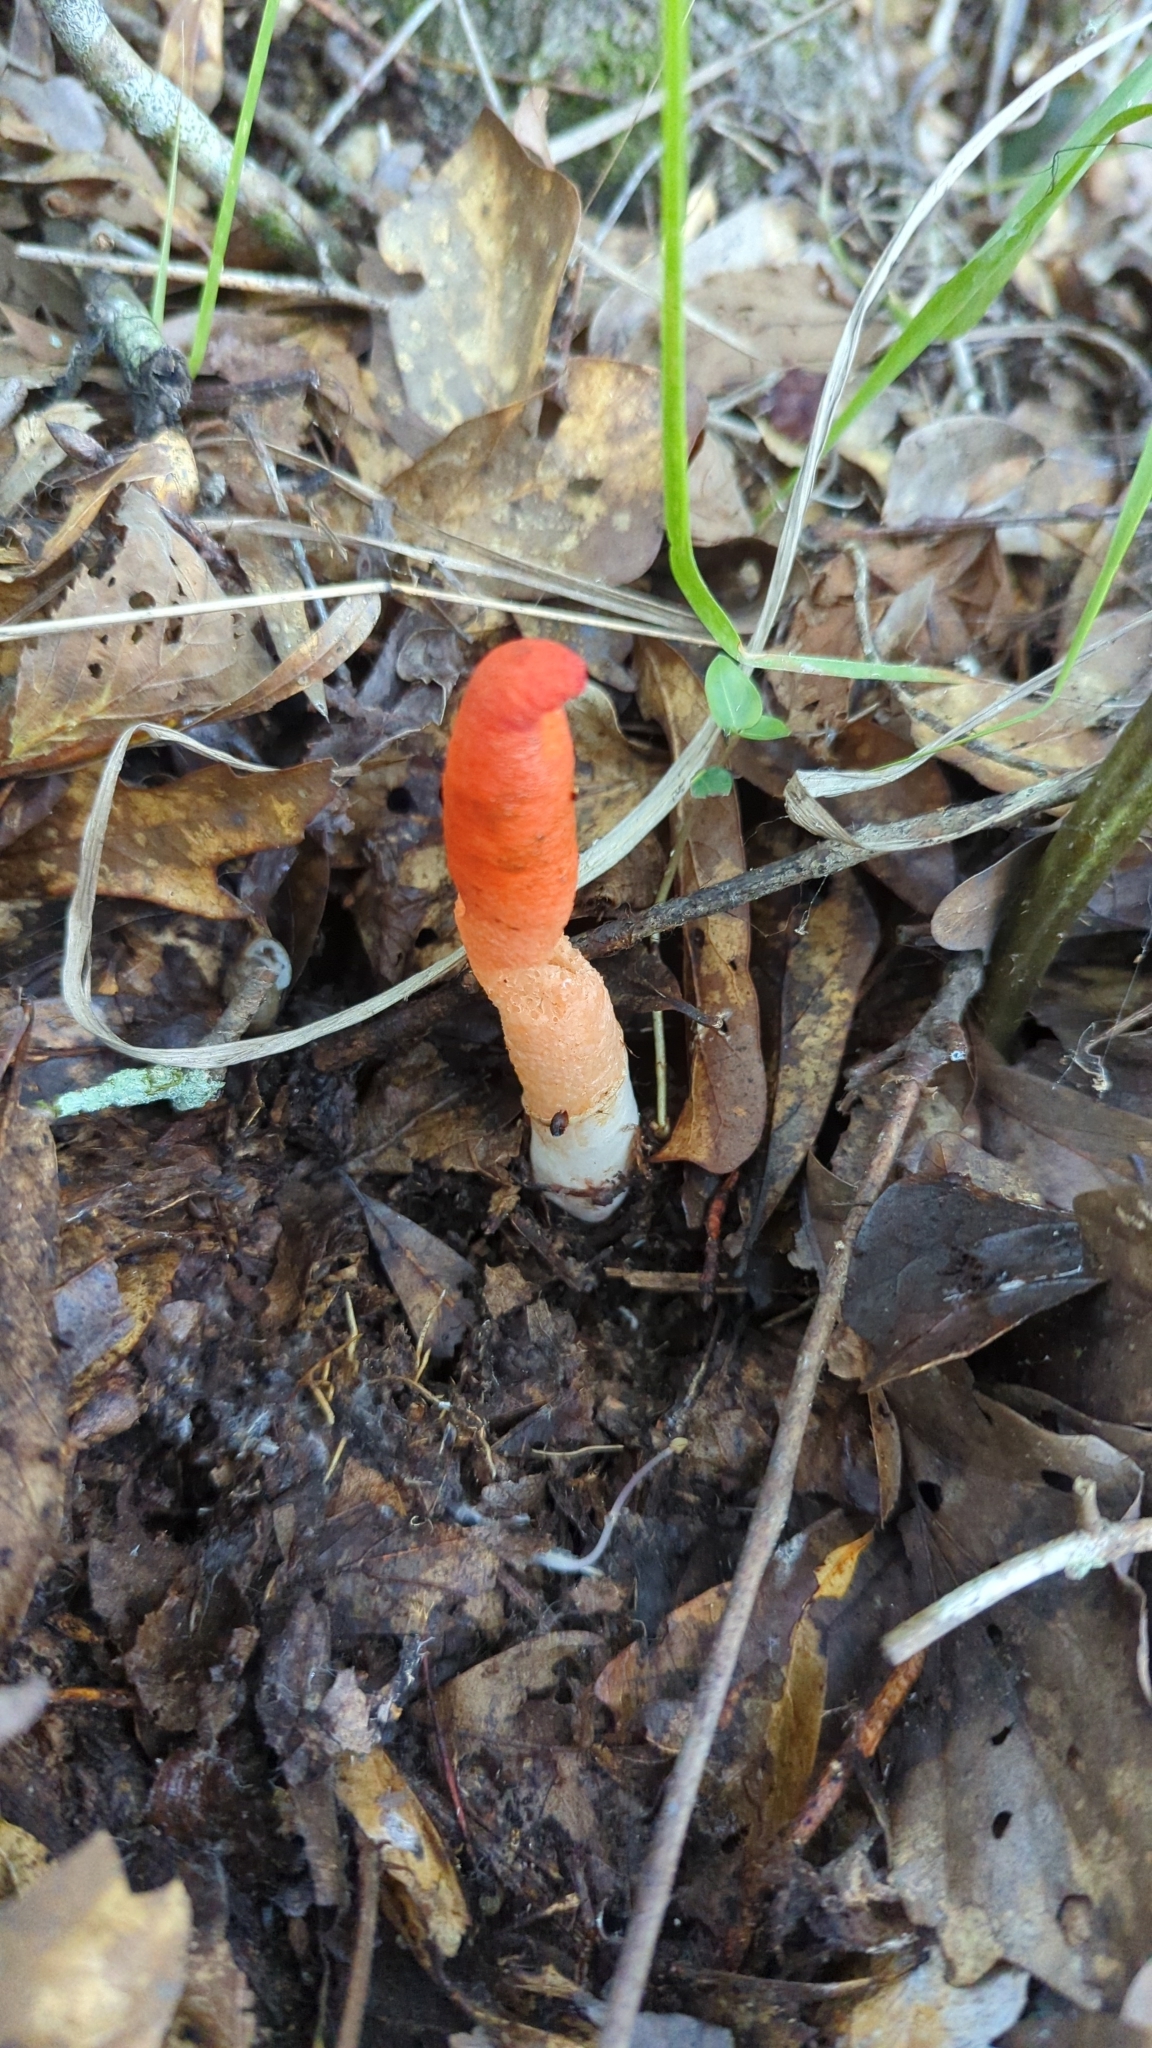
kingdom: Fungi
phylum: Basidiomycota
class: Agaricomycetes
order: Phallales
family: Phallaceae
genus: Mutinus
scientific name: Mutinus elegans
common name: Devil's dipstick
